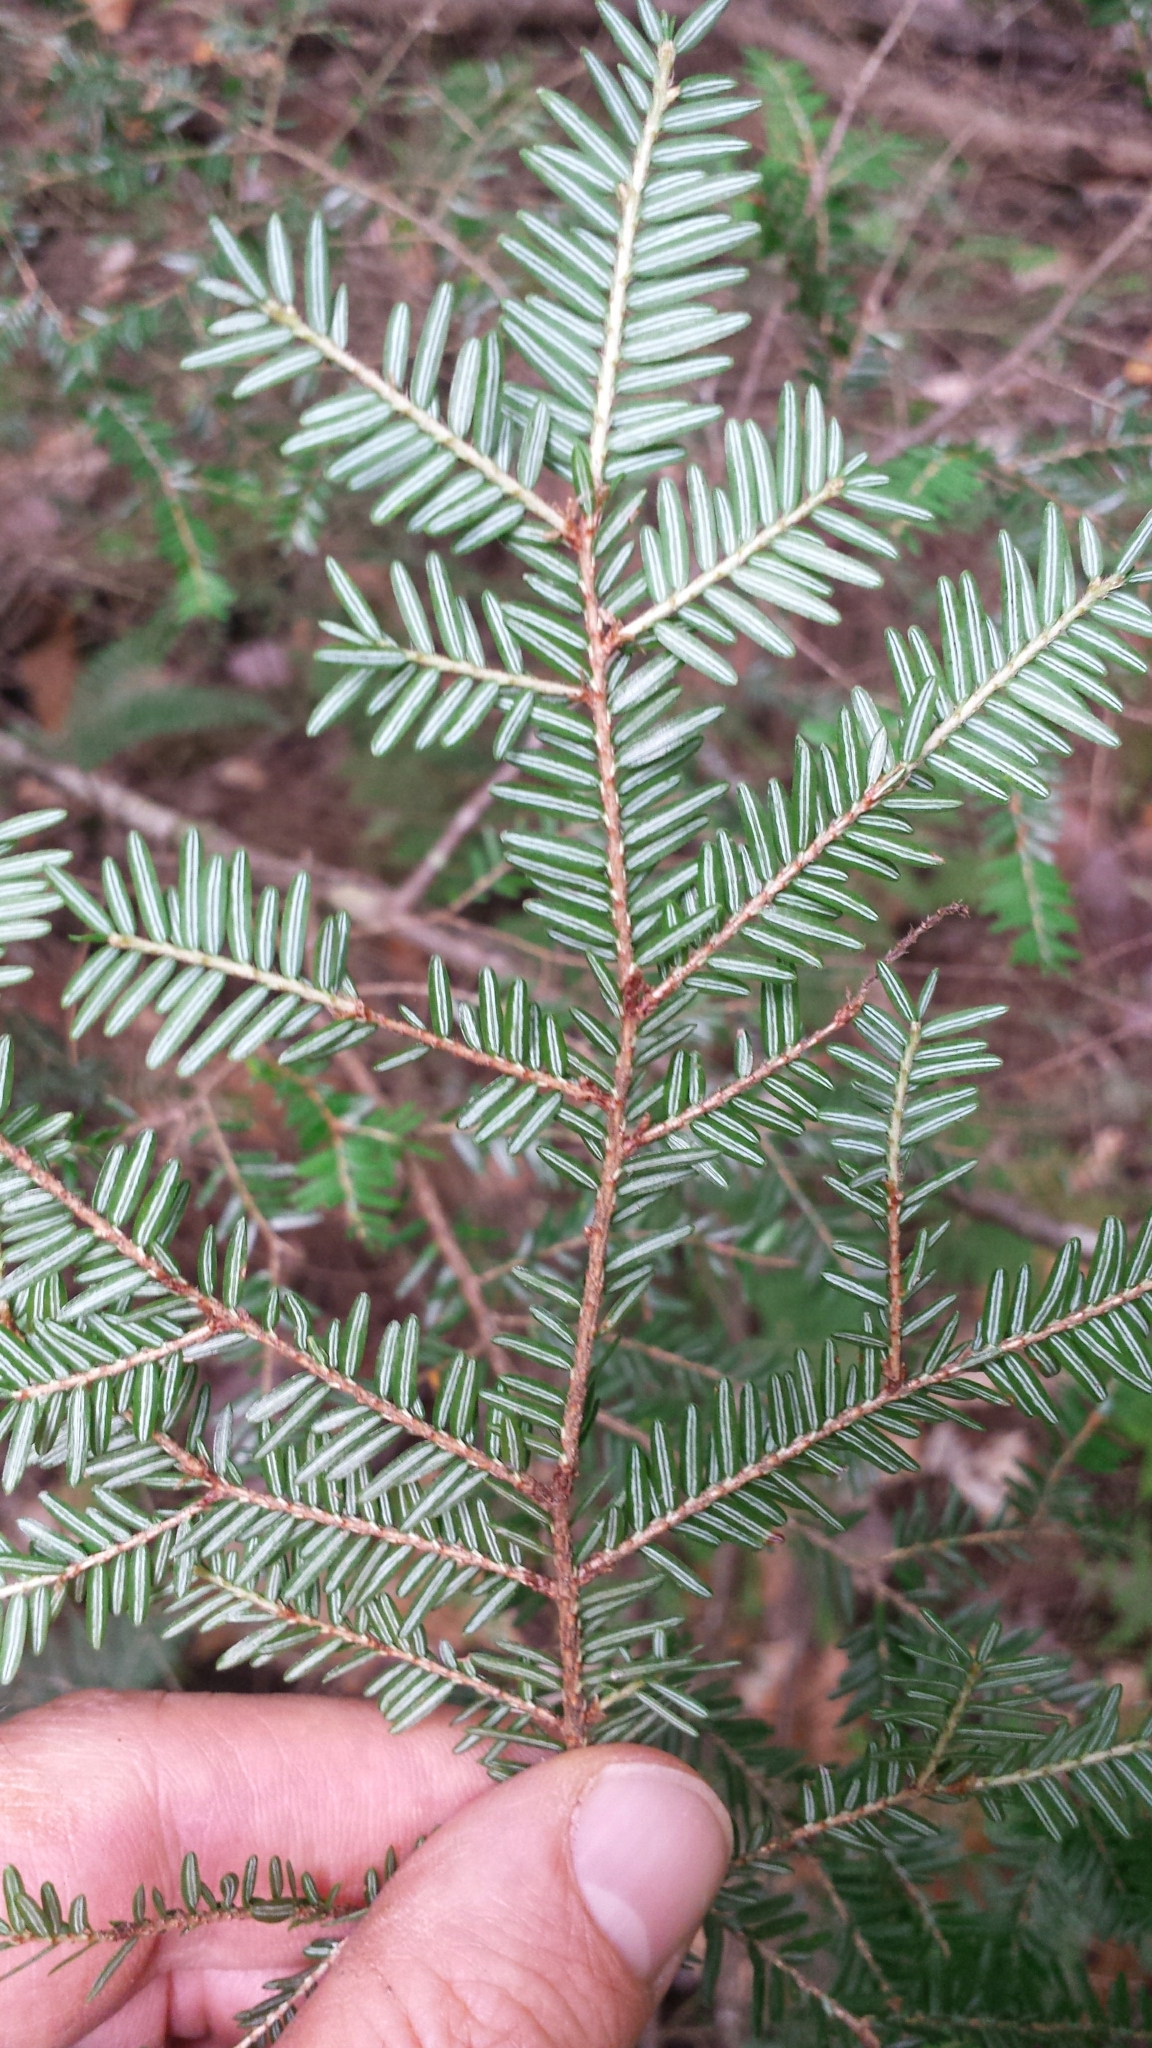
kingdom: Plantae
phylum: Tracheophyta
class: Pinopsida
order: Pinales
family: Pinaceae
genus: Tsuga
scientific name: Tsuga canadensis
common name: Eastern hemlock
